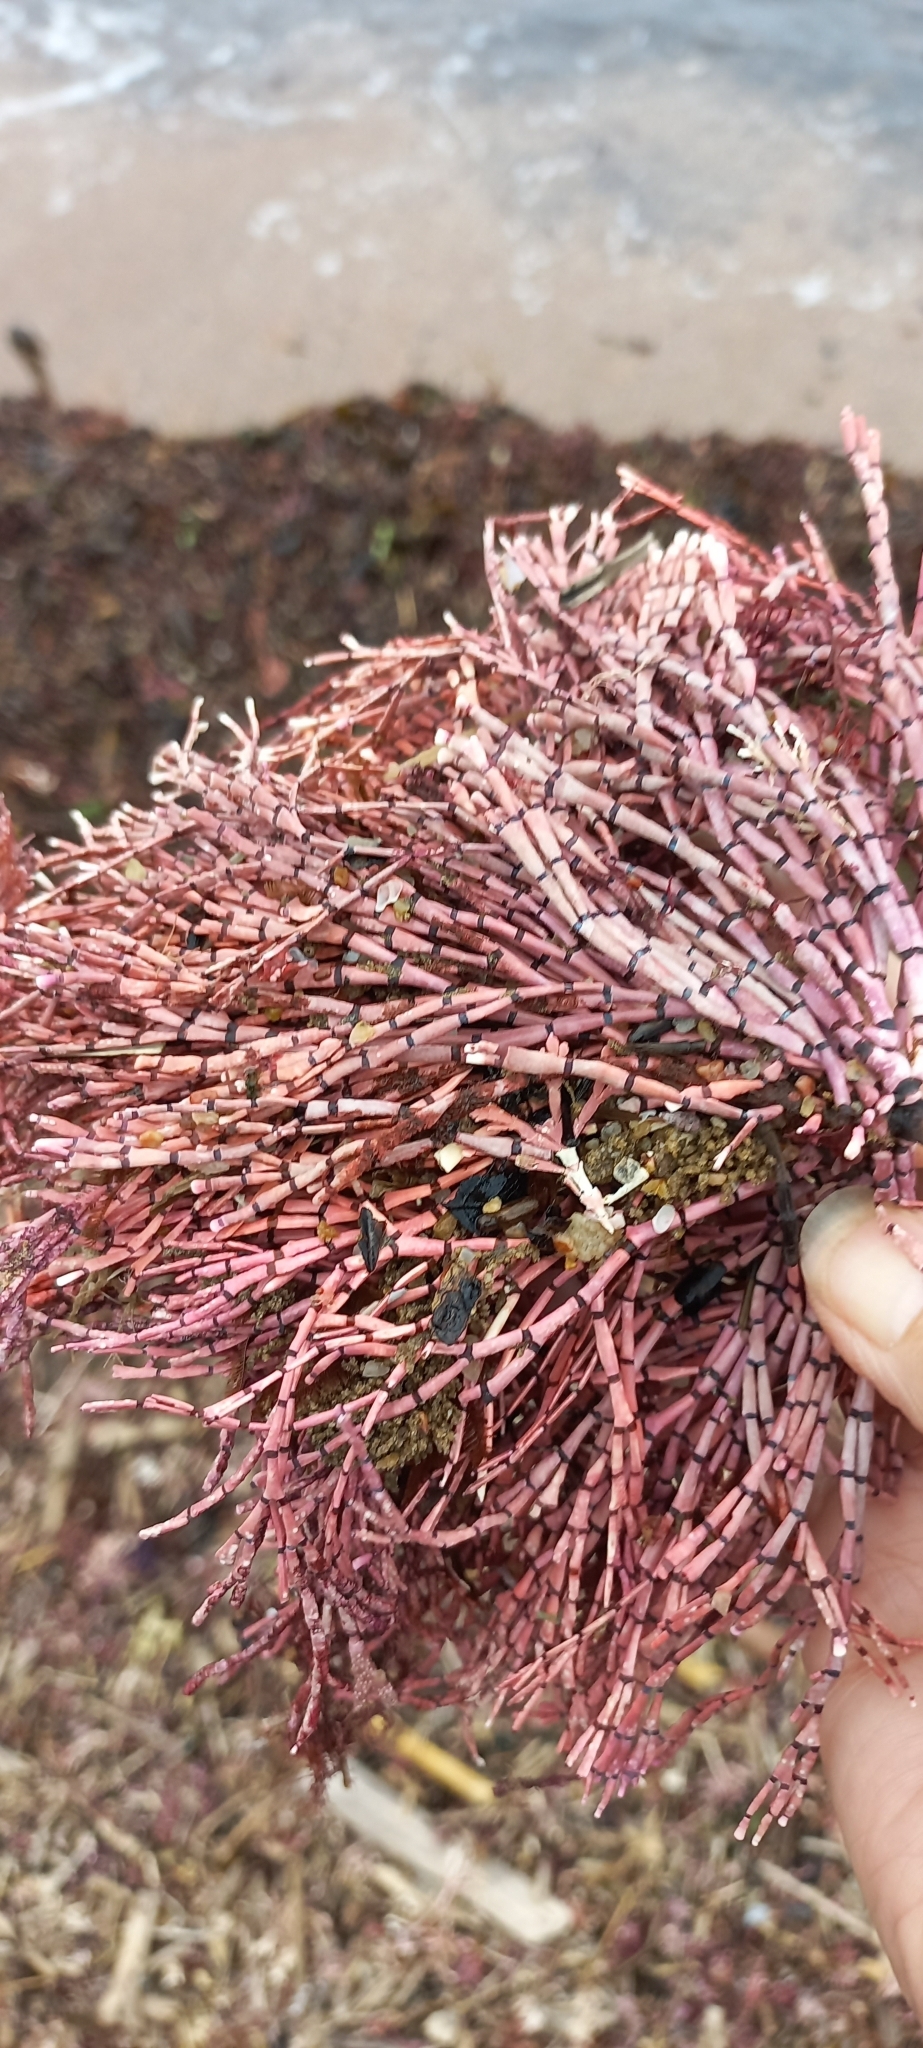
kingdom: Plantae
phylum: Rhodophyta
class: Florideophyceae
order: Corallinales
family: Corallinaceae
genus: Corallina
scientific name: Corallina Amphiroa ephedraea
